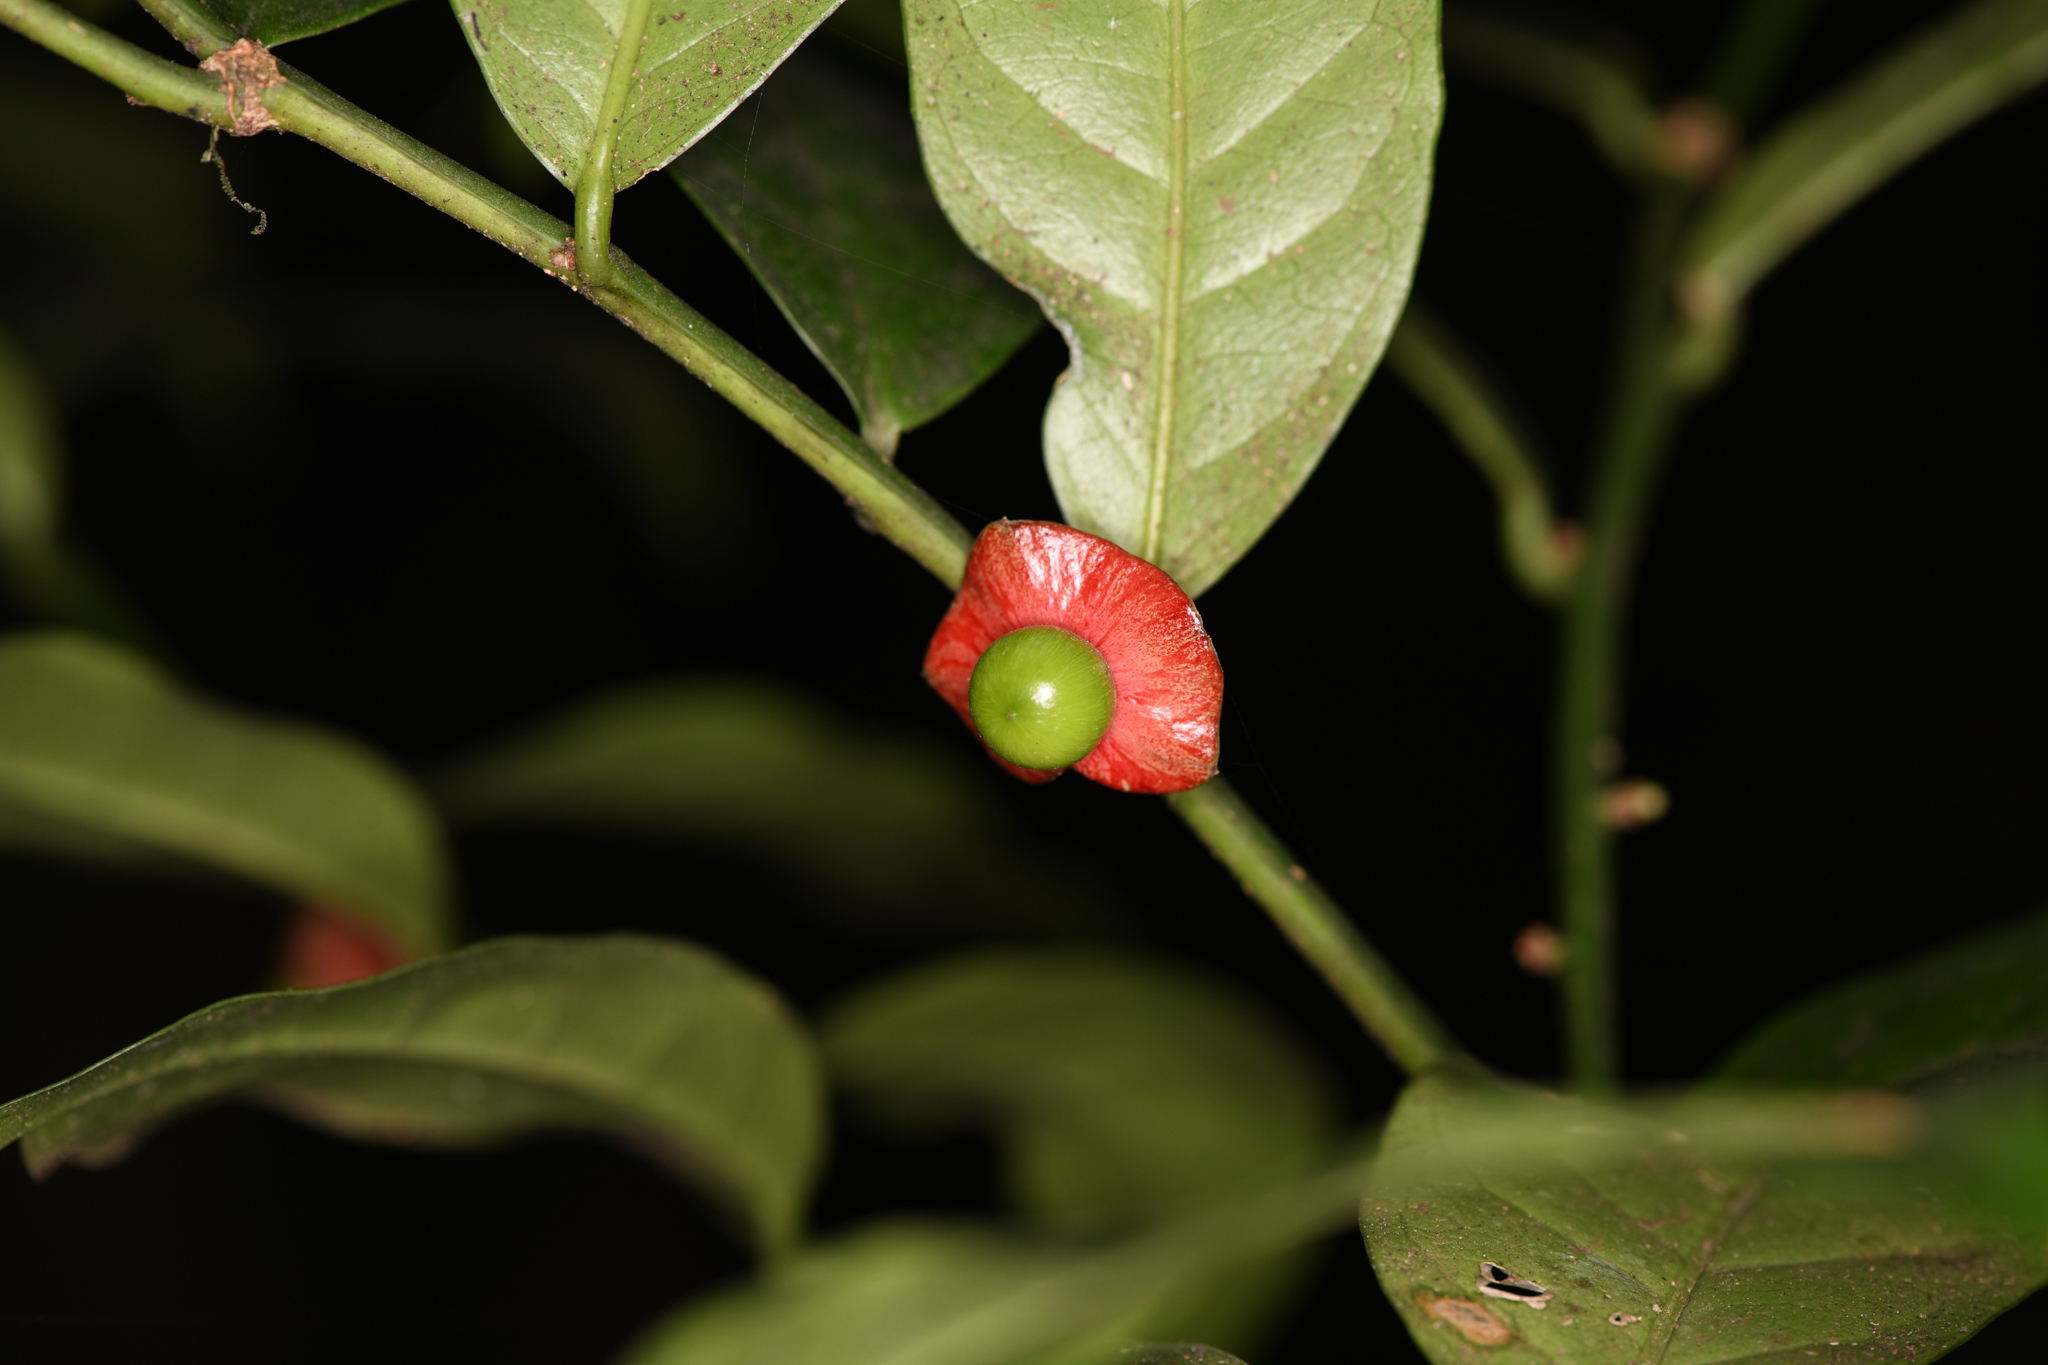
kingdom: Plantae
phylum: Tracheophyta
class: Magnoliopsida
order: Santalales
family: Erythropalaceae
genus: Heisteria
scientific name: Heisteria povedae
